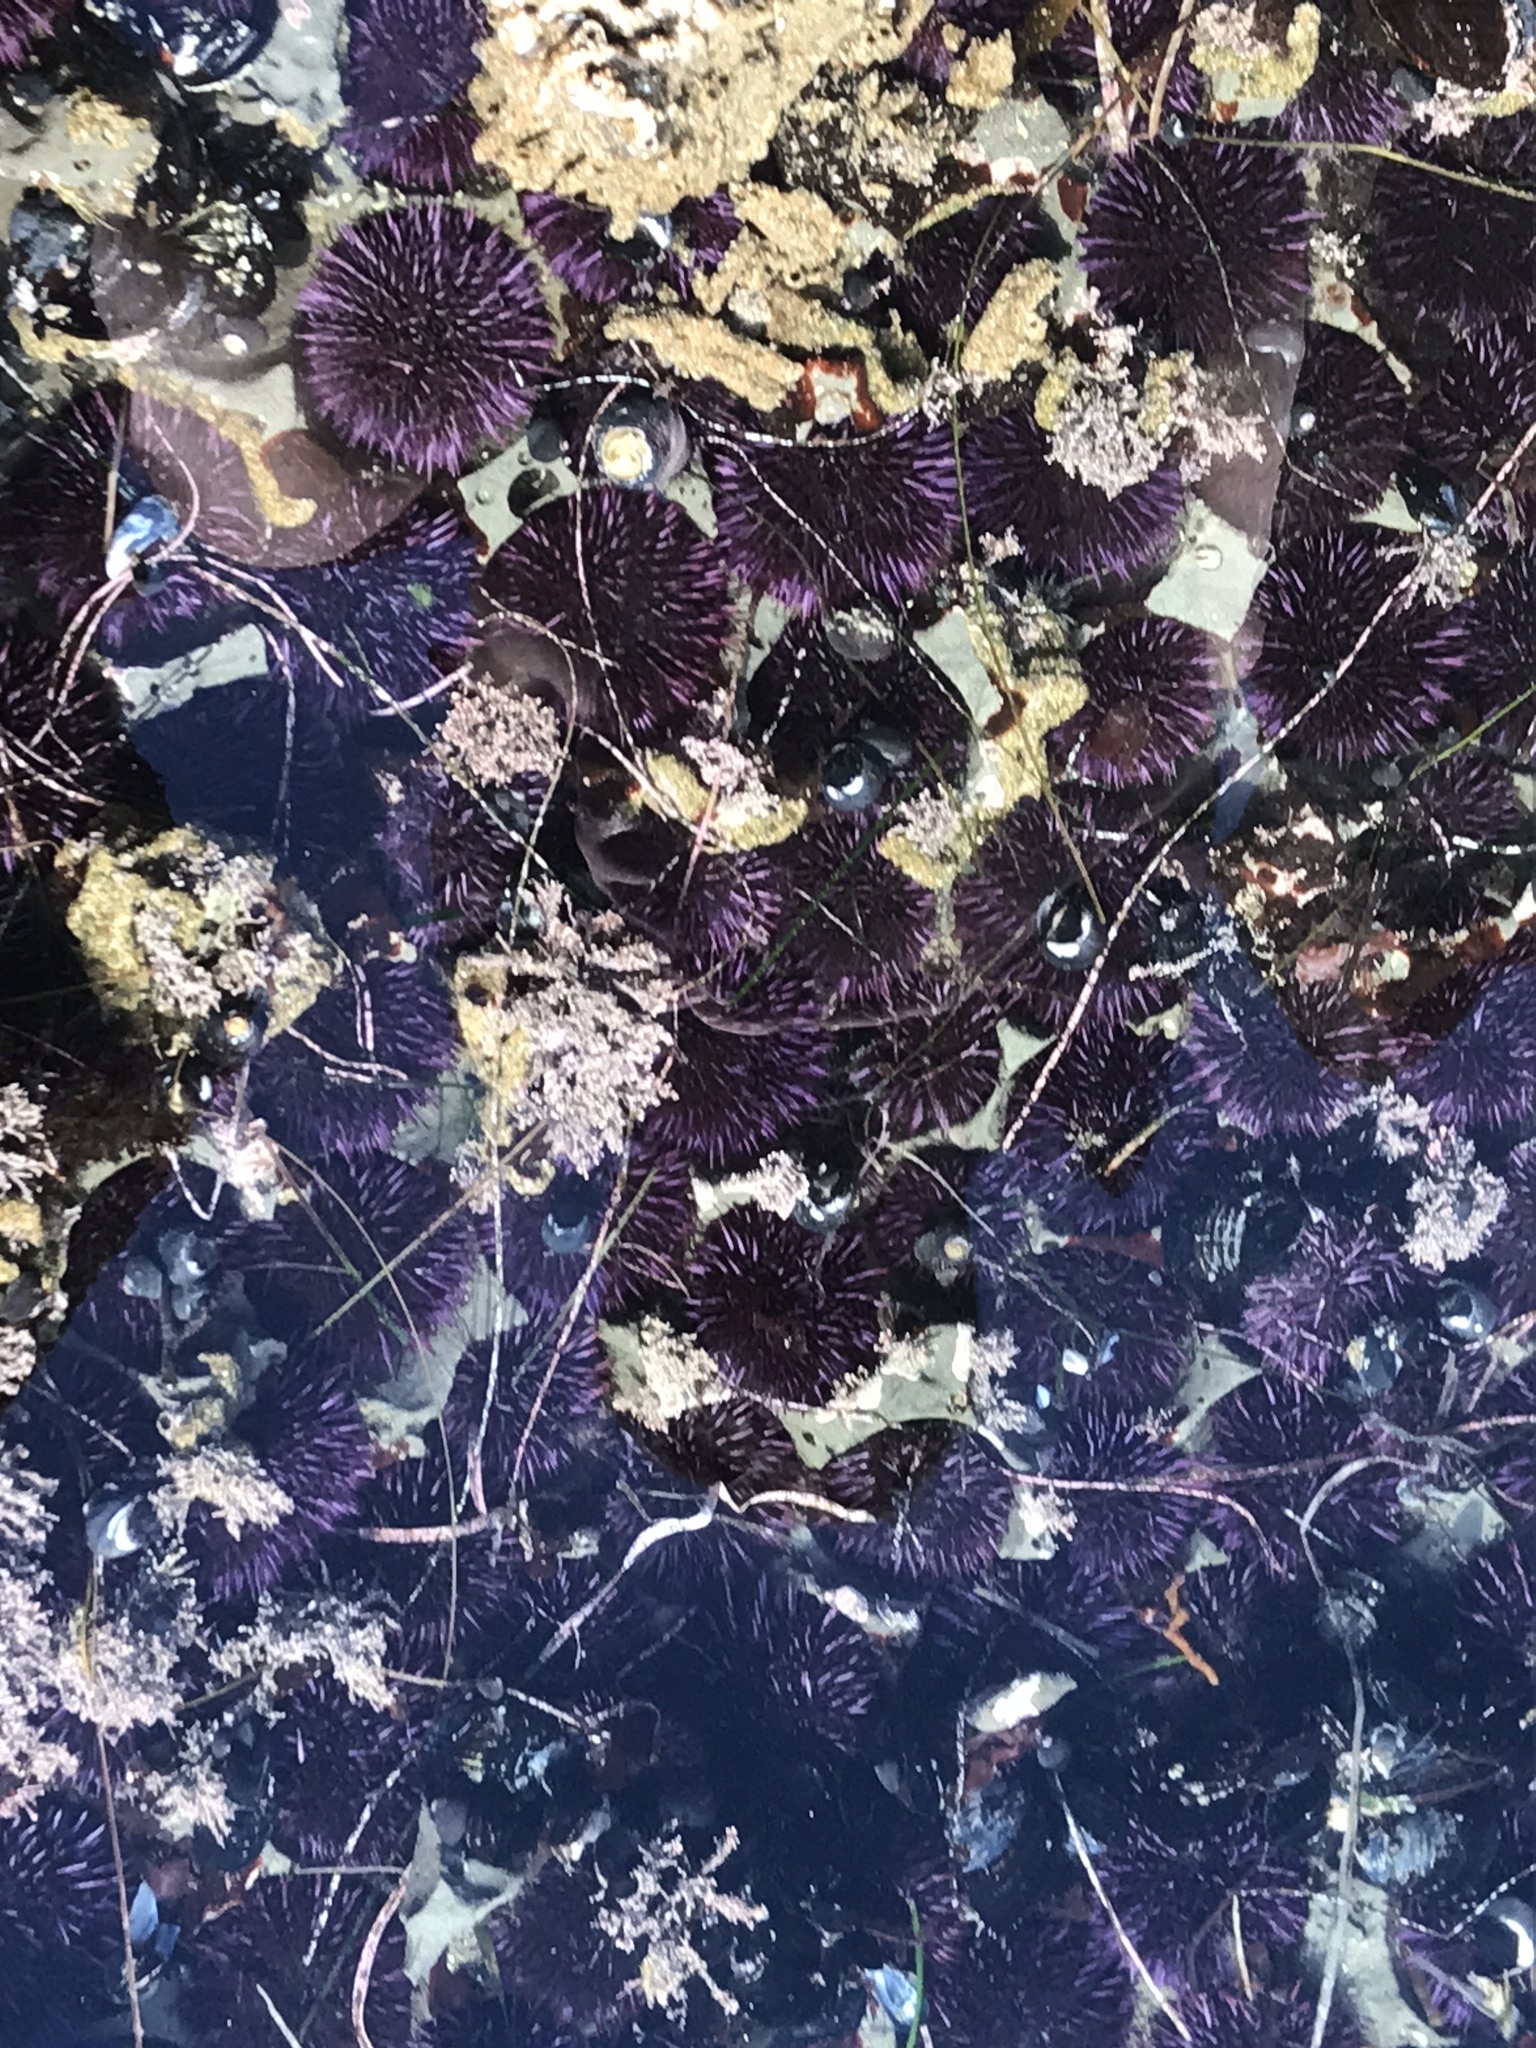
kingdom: Animalia
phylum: Echinodermata
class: Echinoidea
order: Camarodonta
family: Strongylocentrotidae
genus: Strongylocentrotus
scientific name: Strongylocentrotus purpuratus
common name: Purple sea urchin
